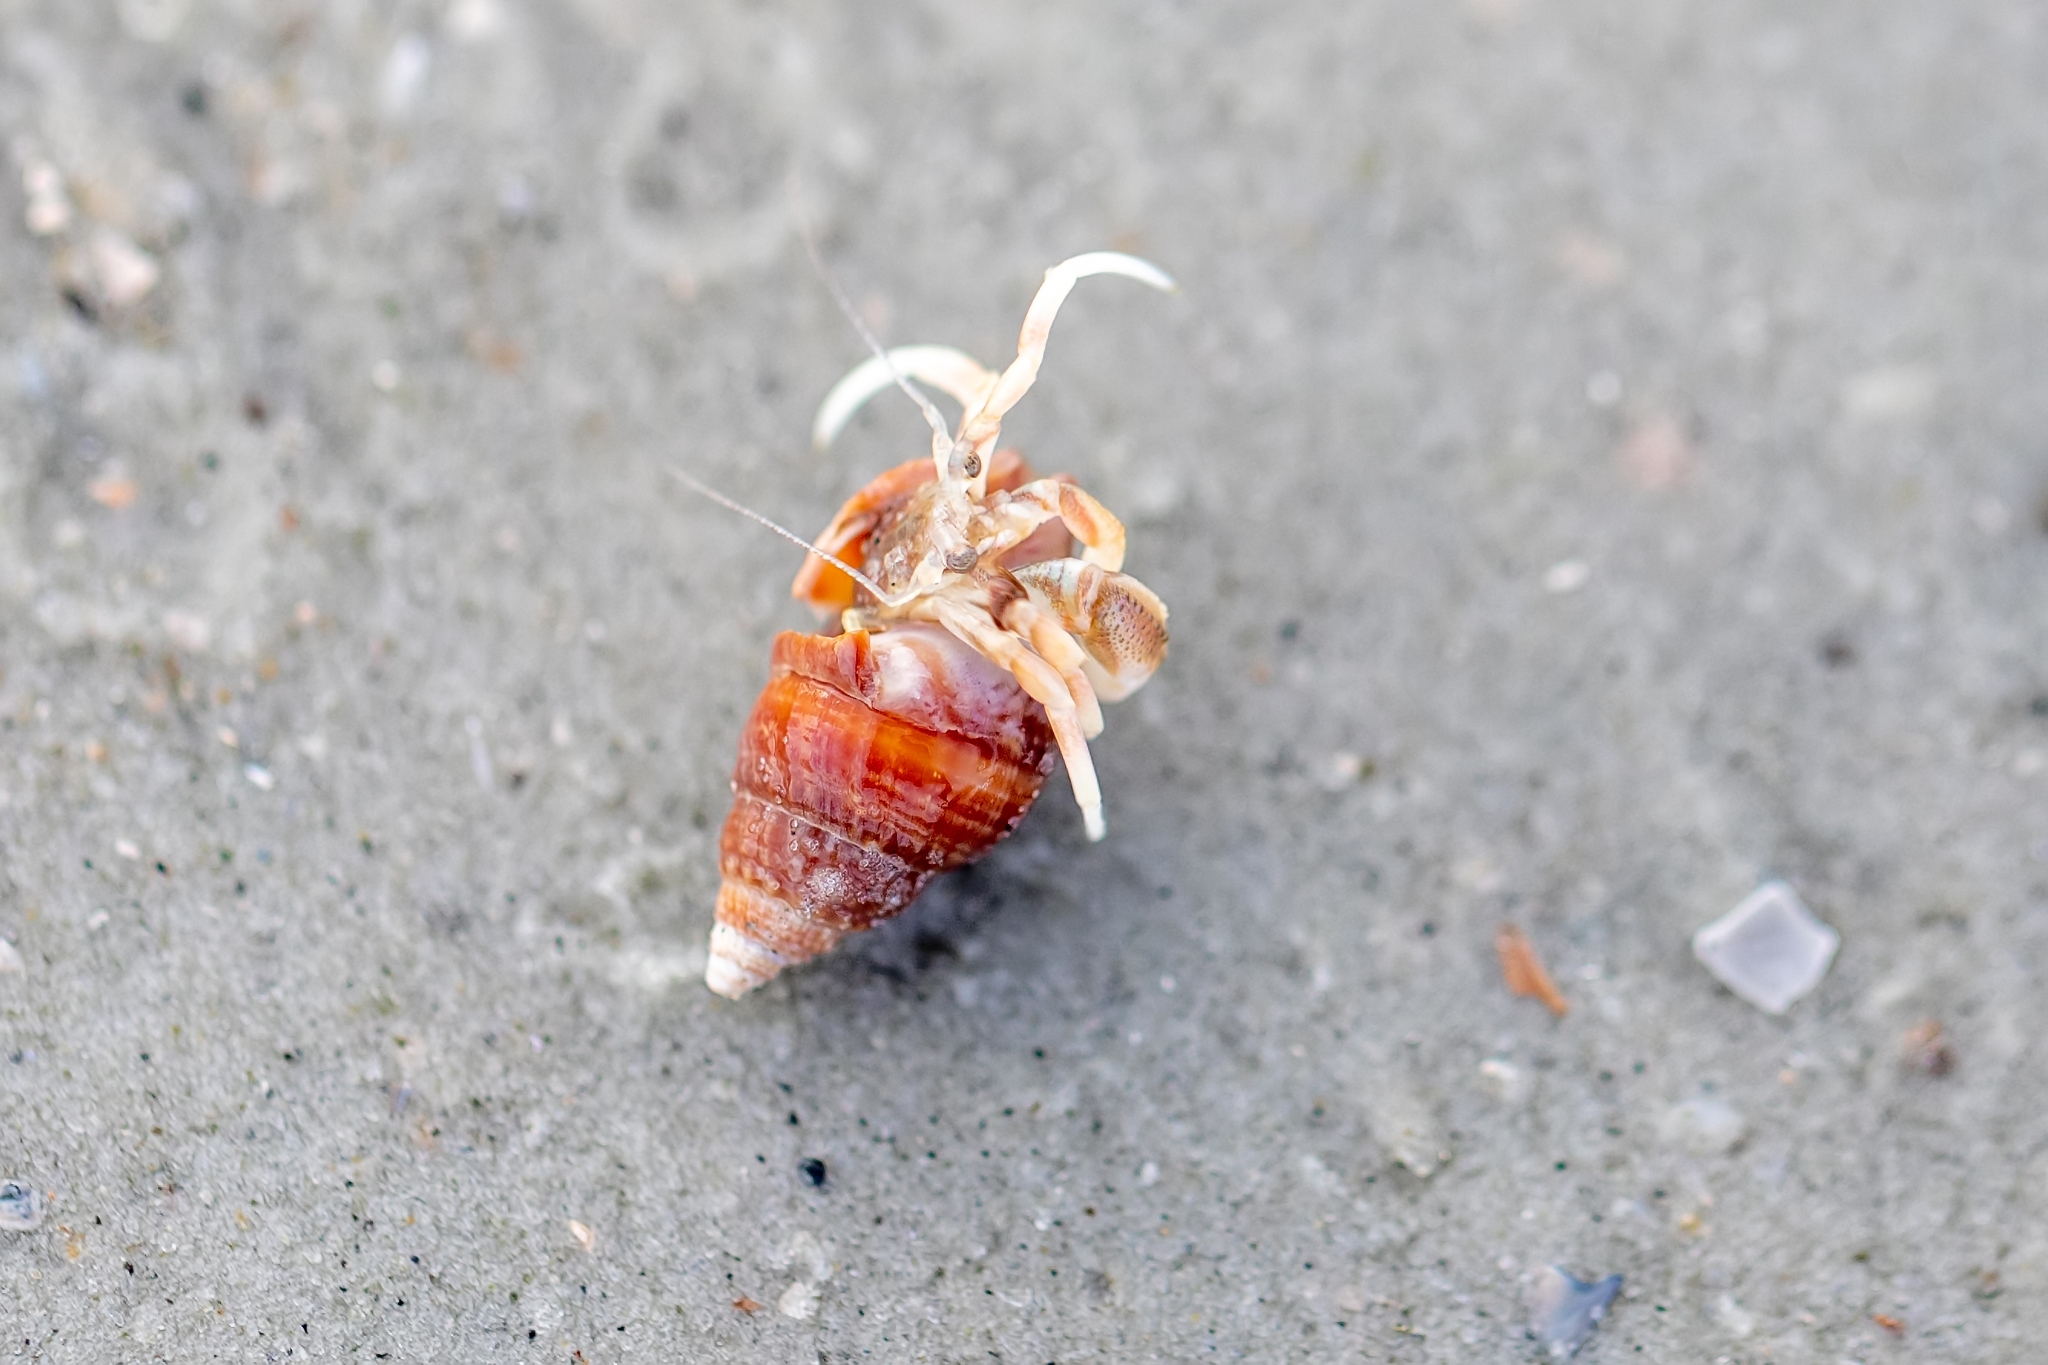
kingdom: Animalia
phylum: Arthropoda
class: Malacostraca
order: Decapoda
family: Paguridae
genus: Pagurus
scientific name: Pagurus longicarpus
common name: Long-armed hermit crab
